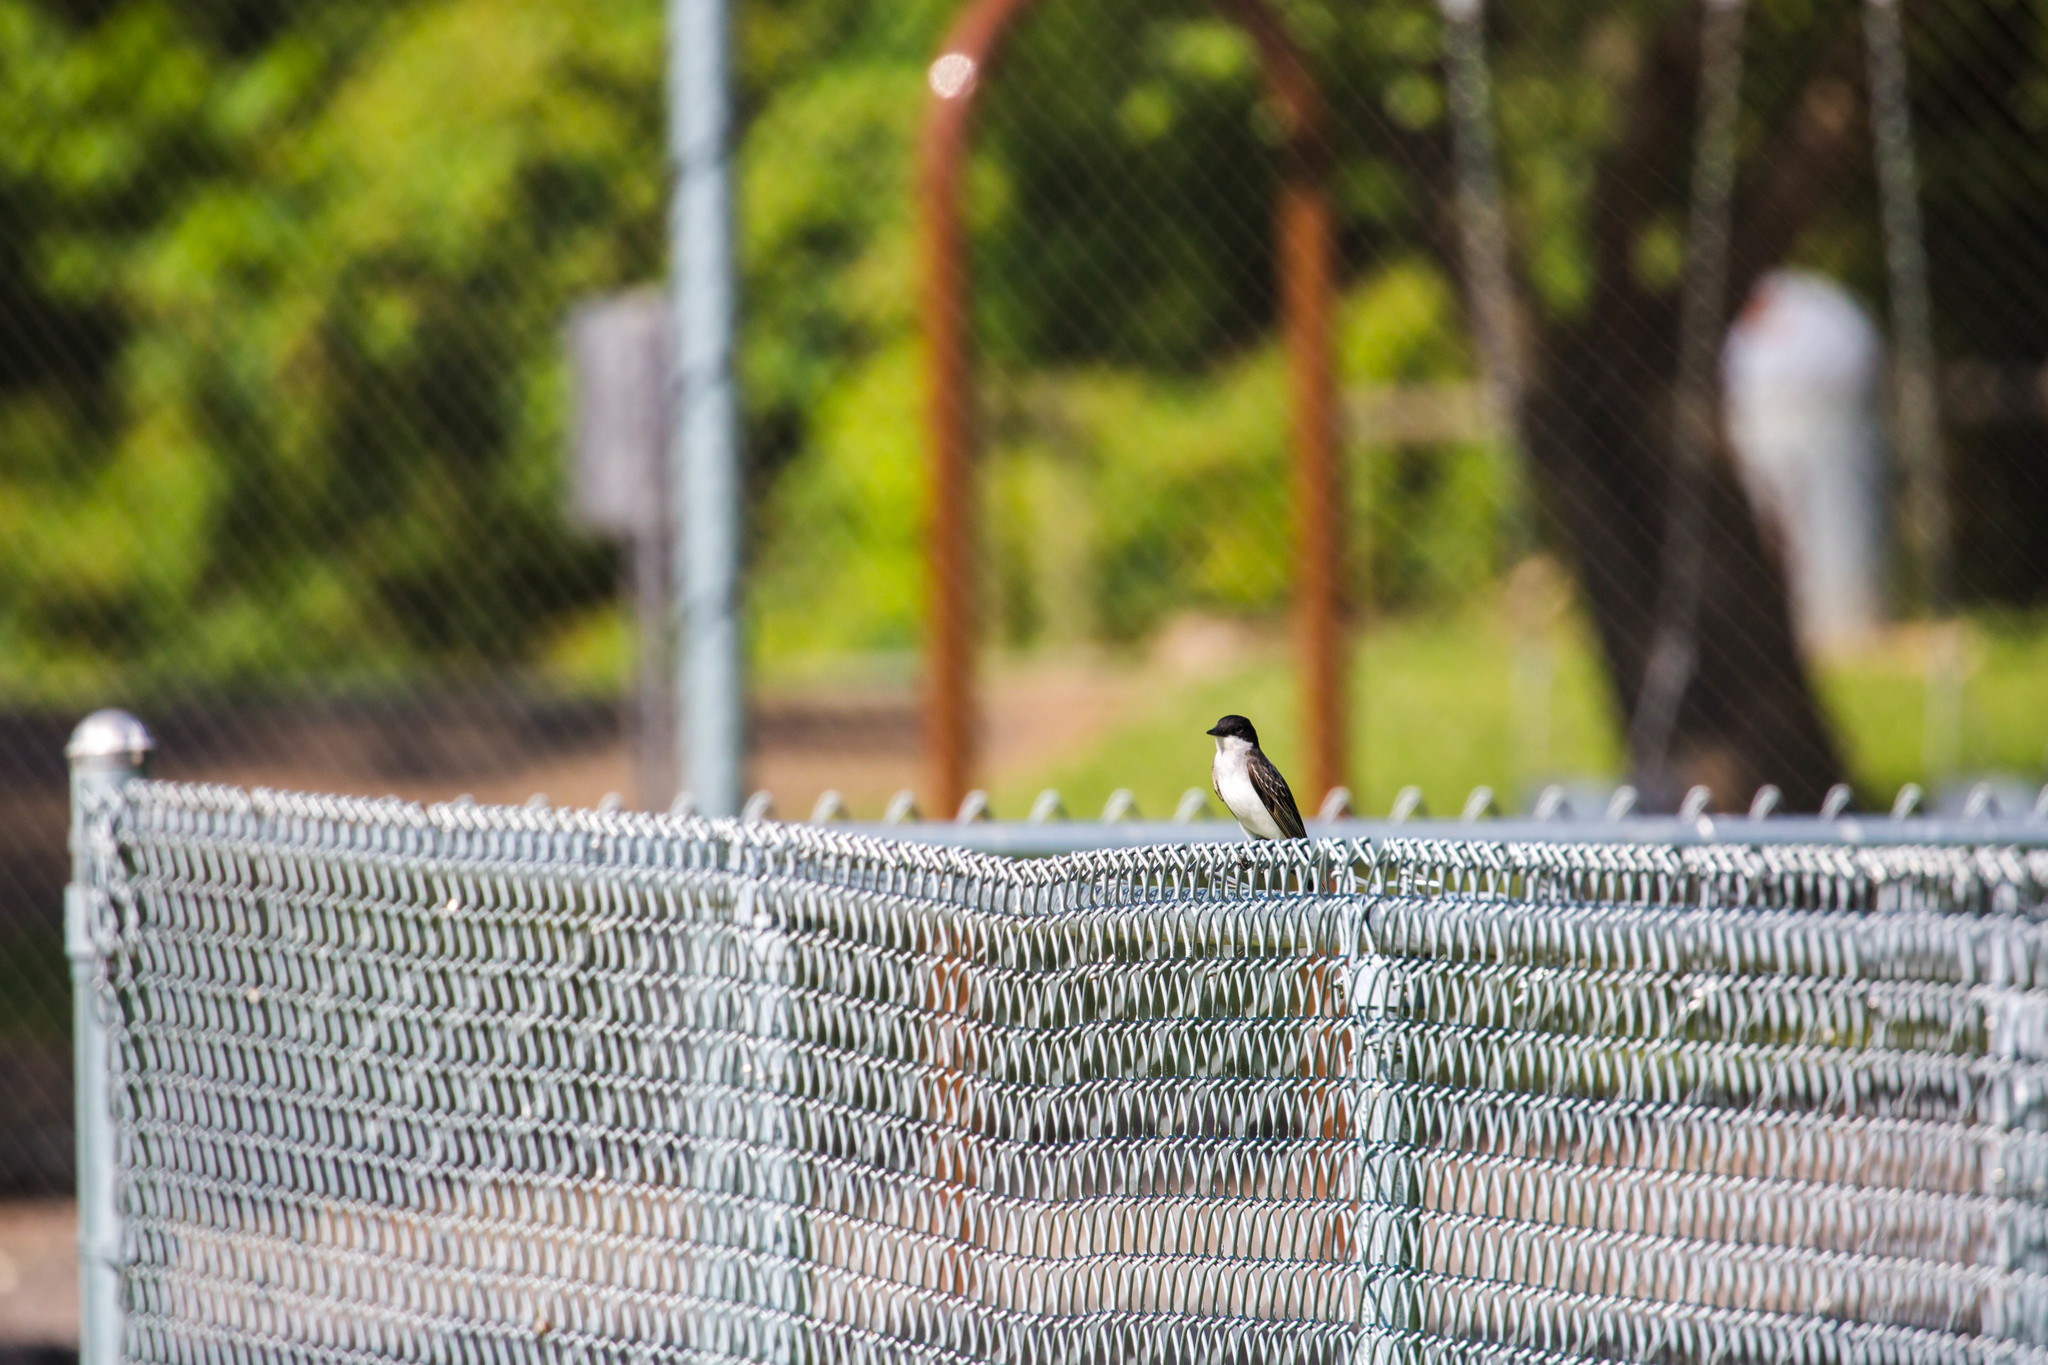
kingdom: Animalia
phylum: Chordata
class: Aves
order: Passeriformes
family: Tyrannidae
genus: Tyrannus
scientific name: Tyrannus tyrannus
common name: Eastern kingbird
